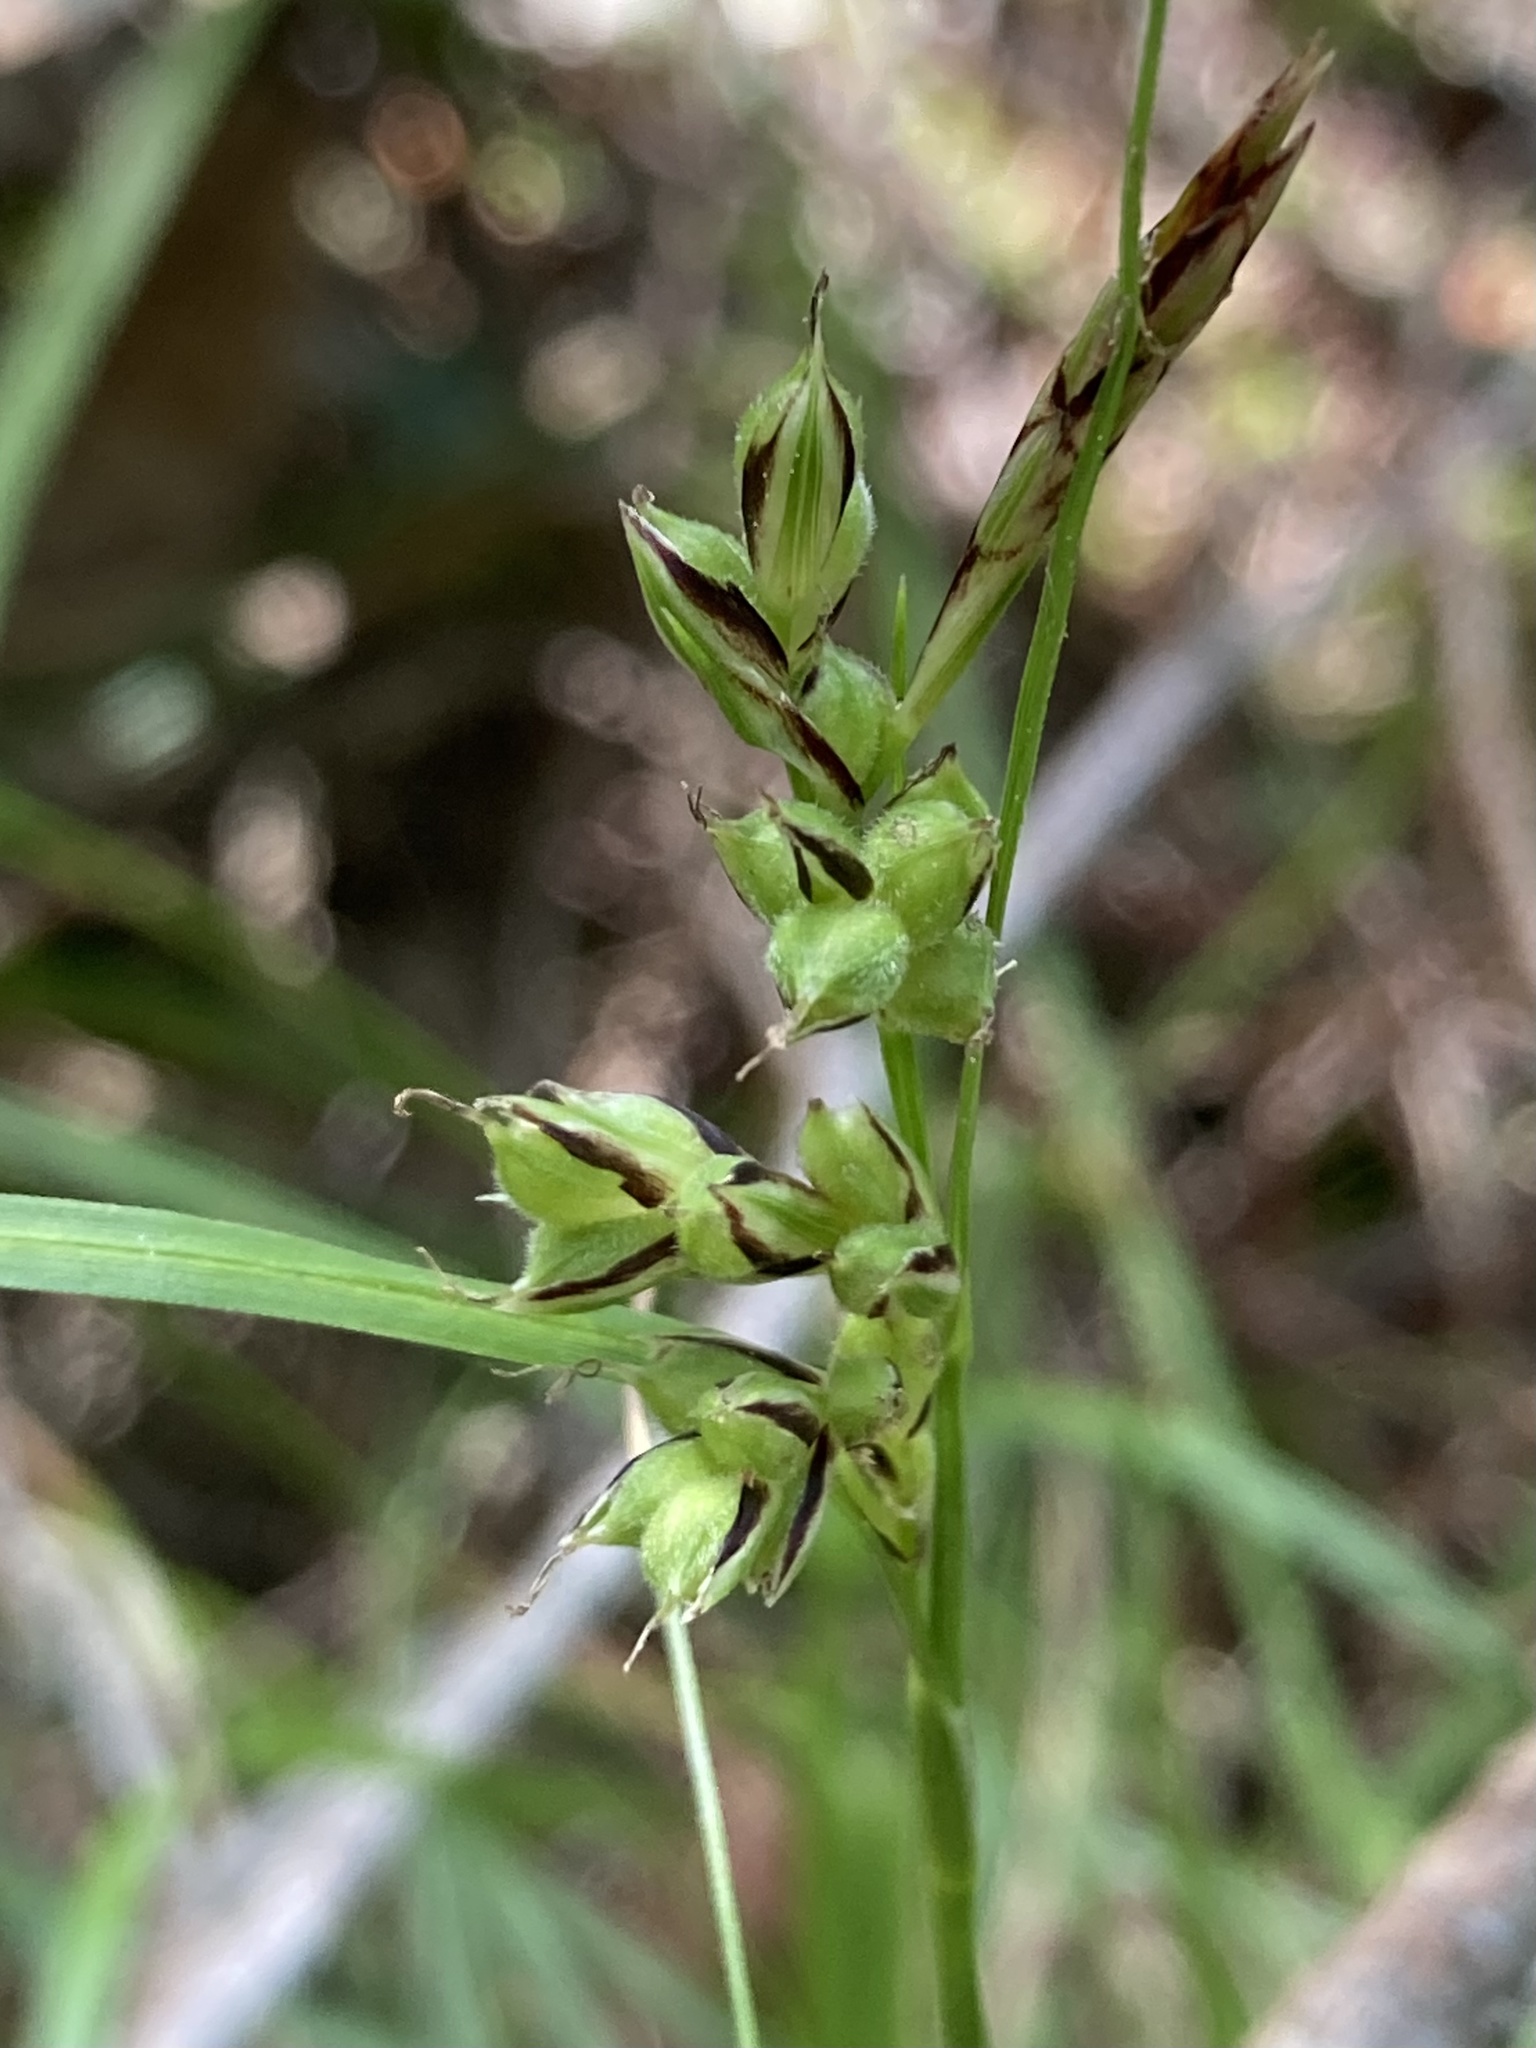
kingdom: Plantae
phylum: Tracheophyta
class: Liliopsida
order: Poales
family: Cyperaceae
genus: Carex
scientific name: Carex globosa
